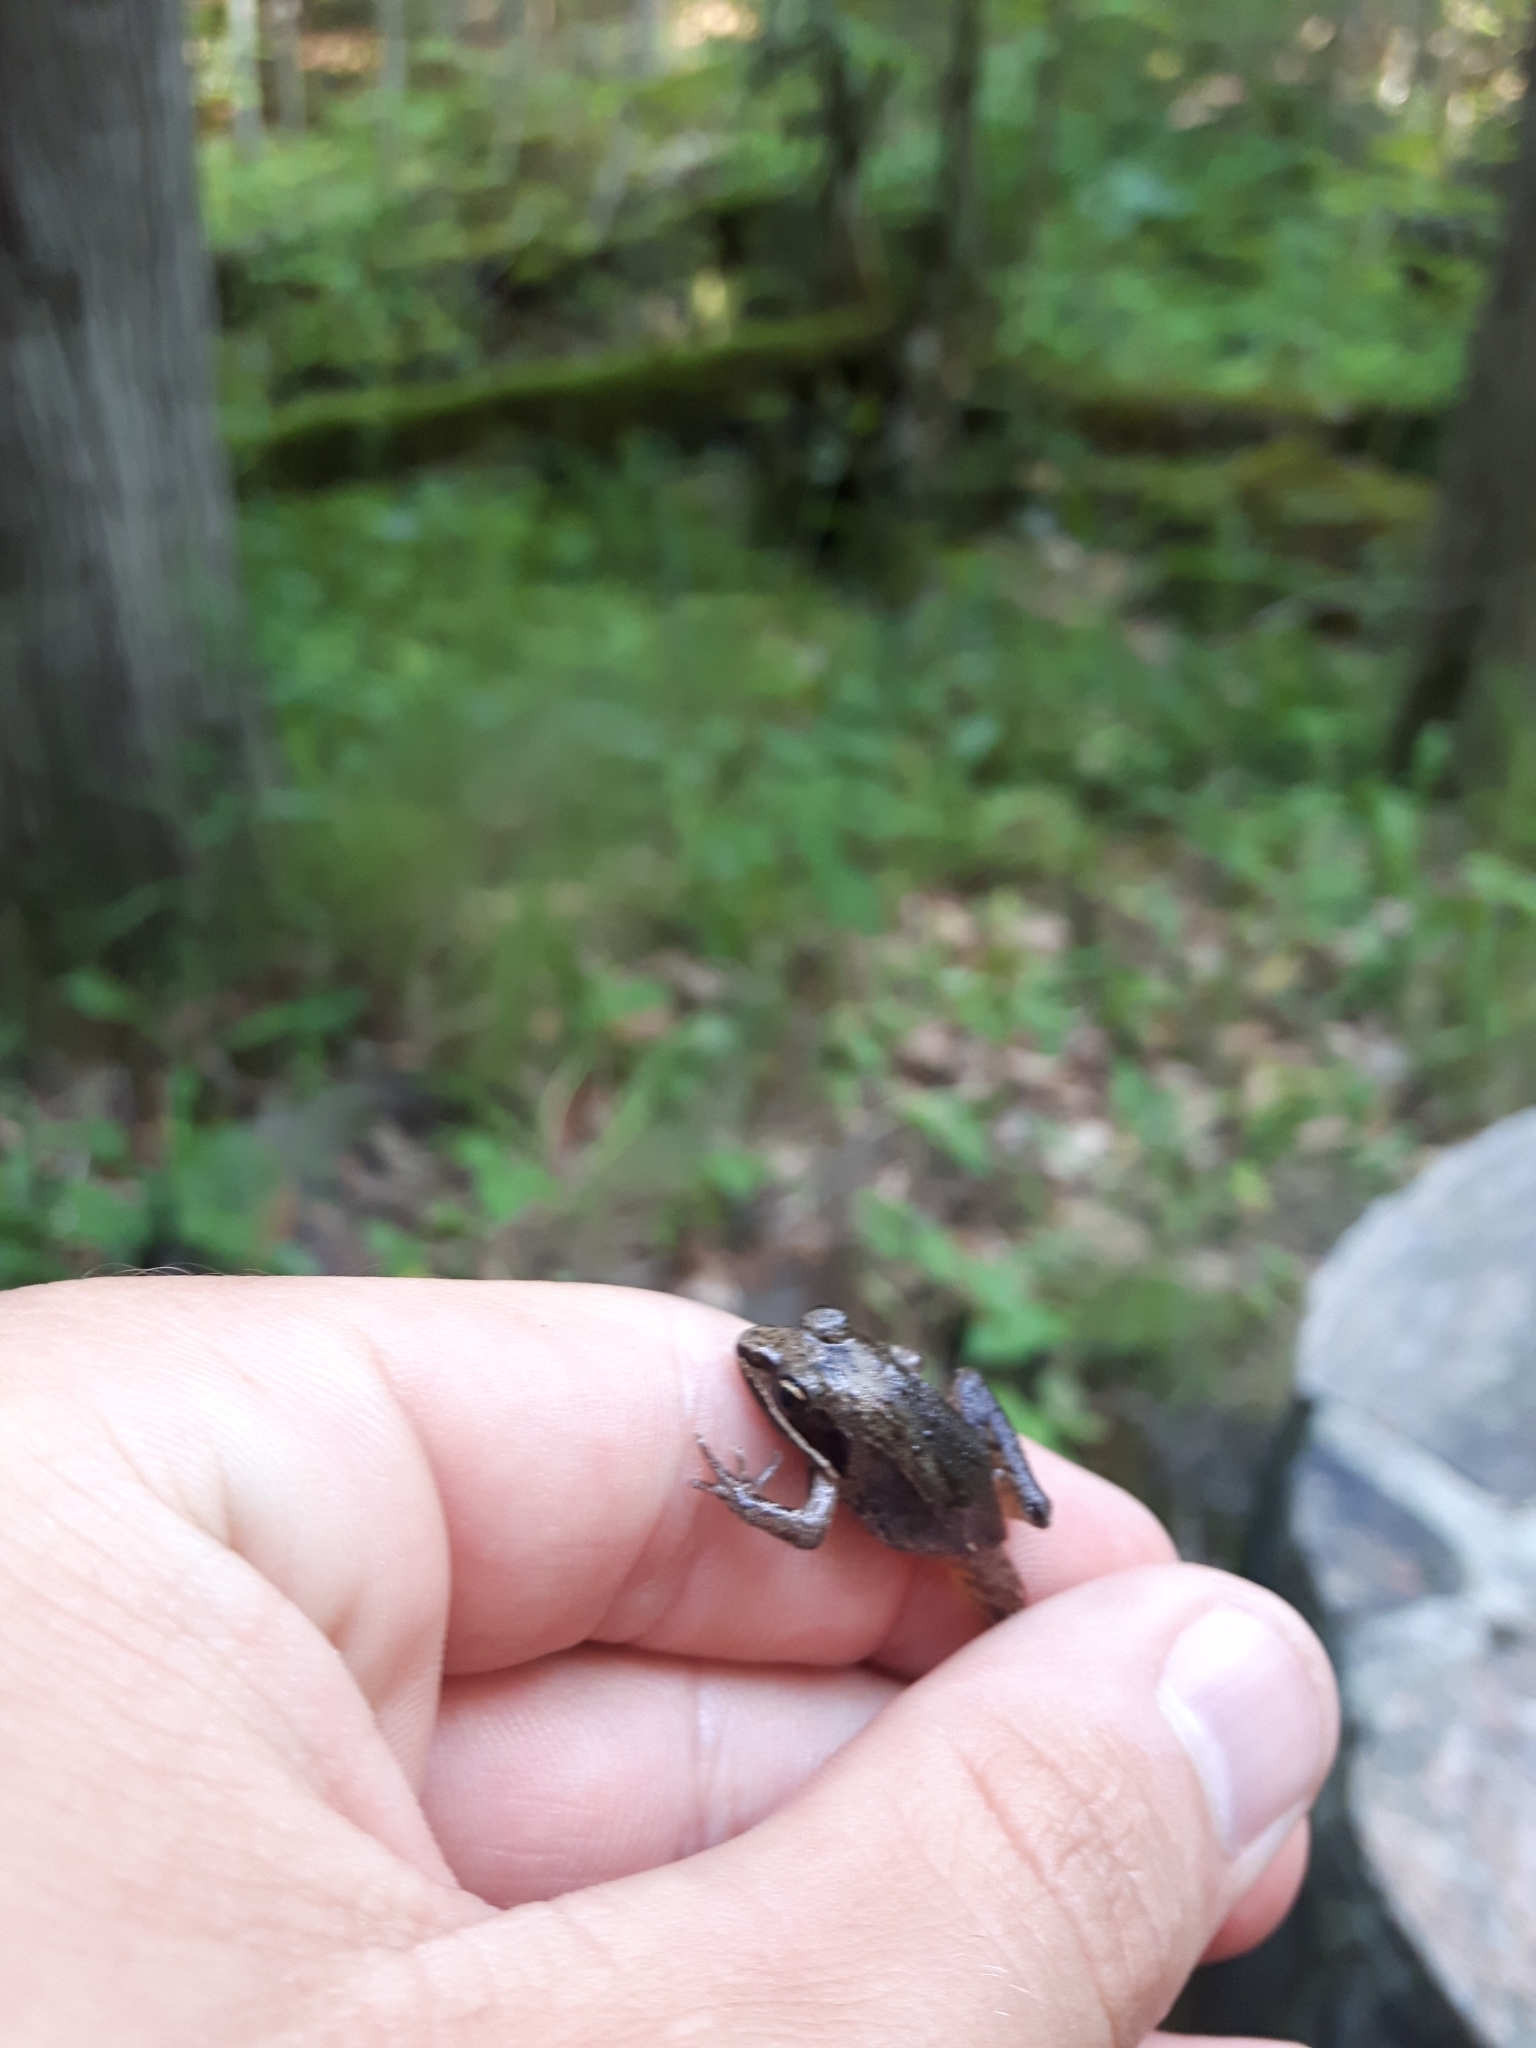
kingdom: Animalia
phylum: Chordata
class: Amphibia
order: Anura
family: Ranidae
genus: Lithobates
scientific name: Lithobates sylvaticus
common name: Wood frog
